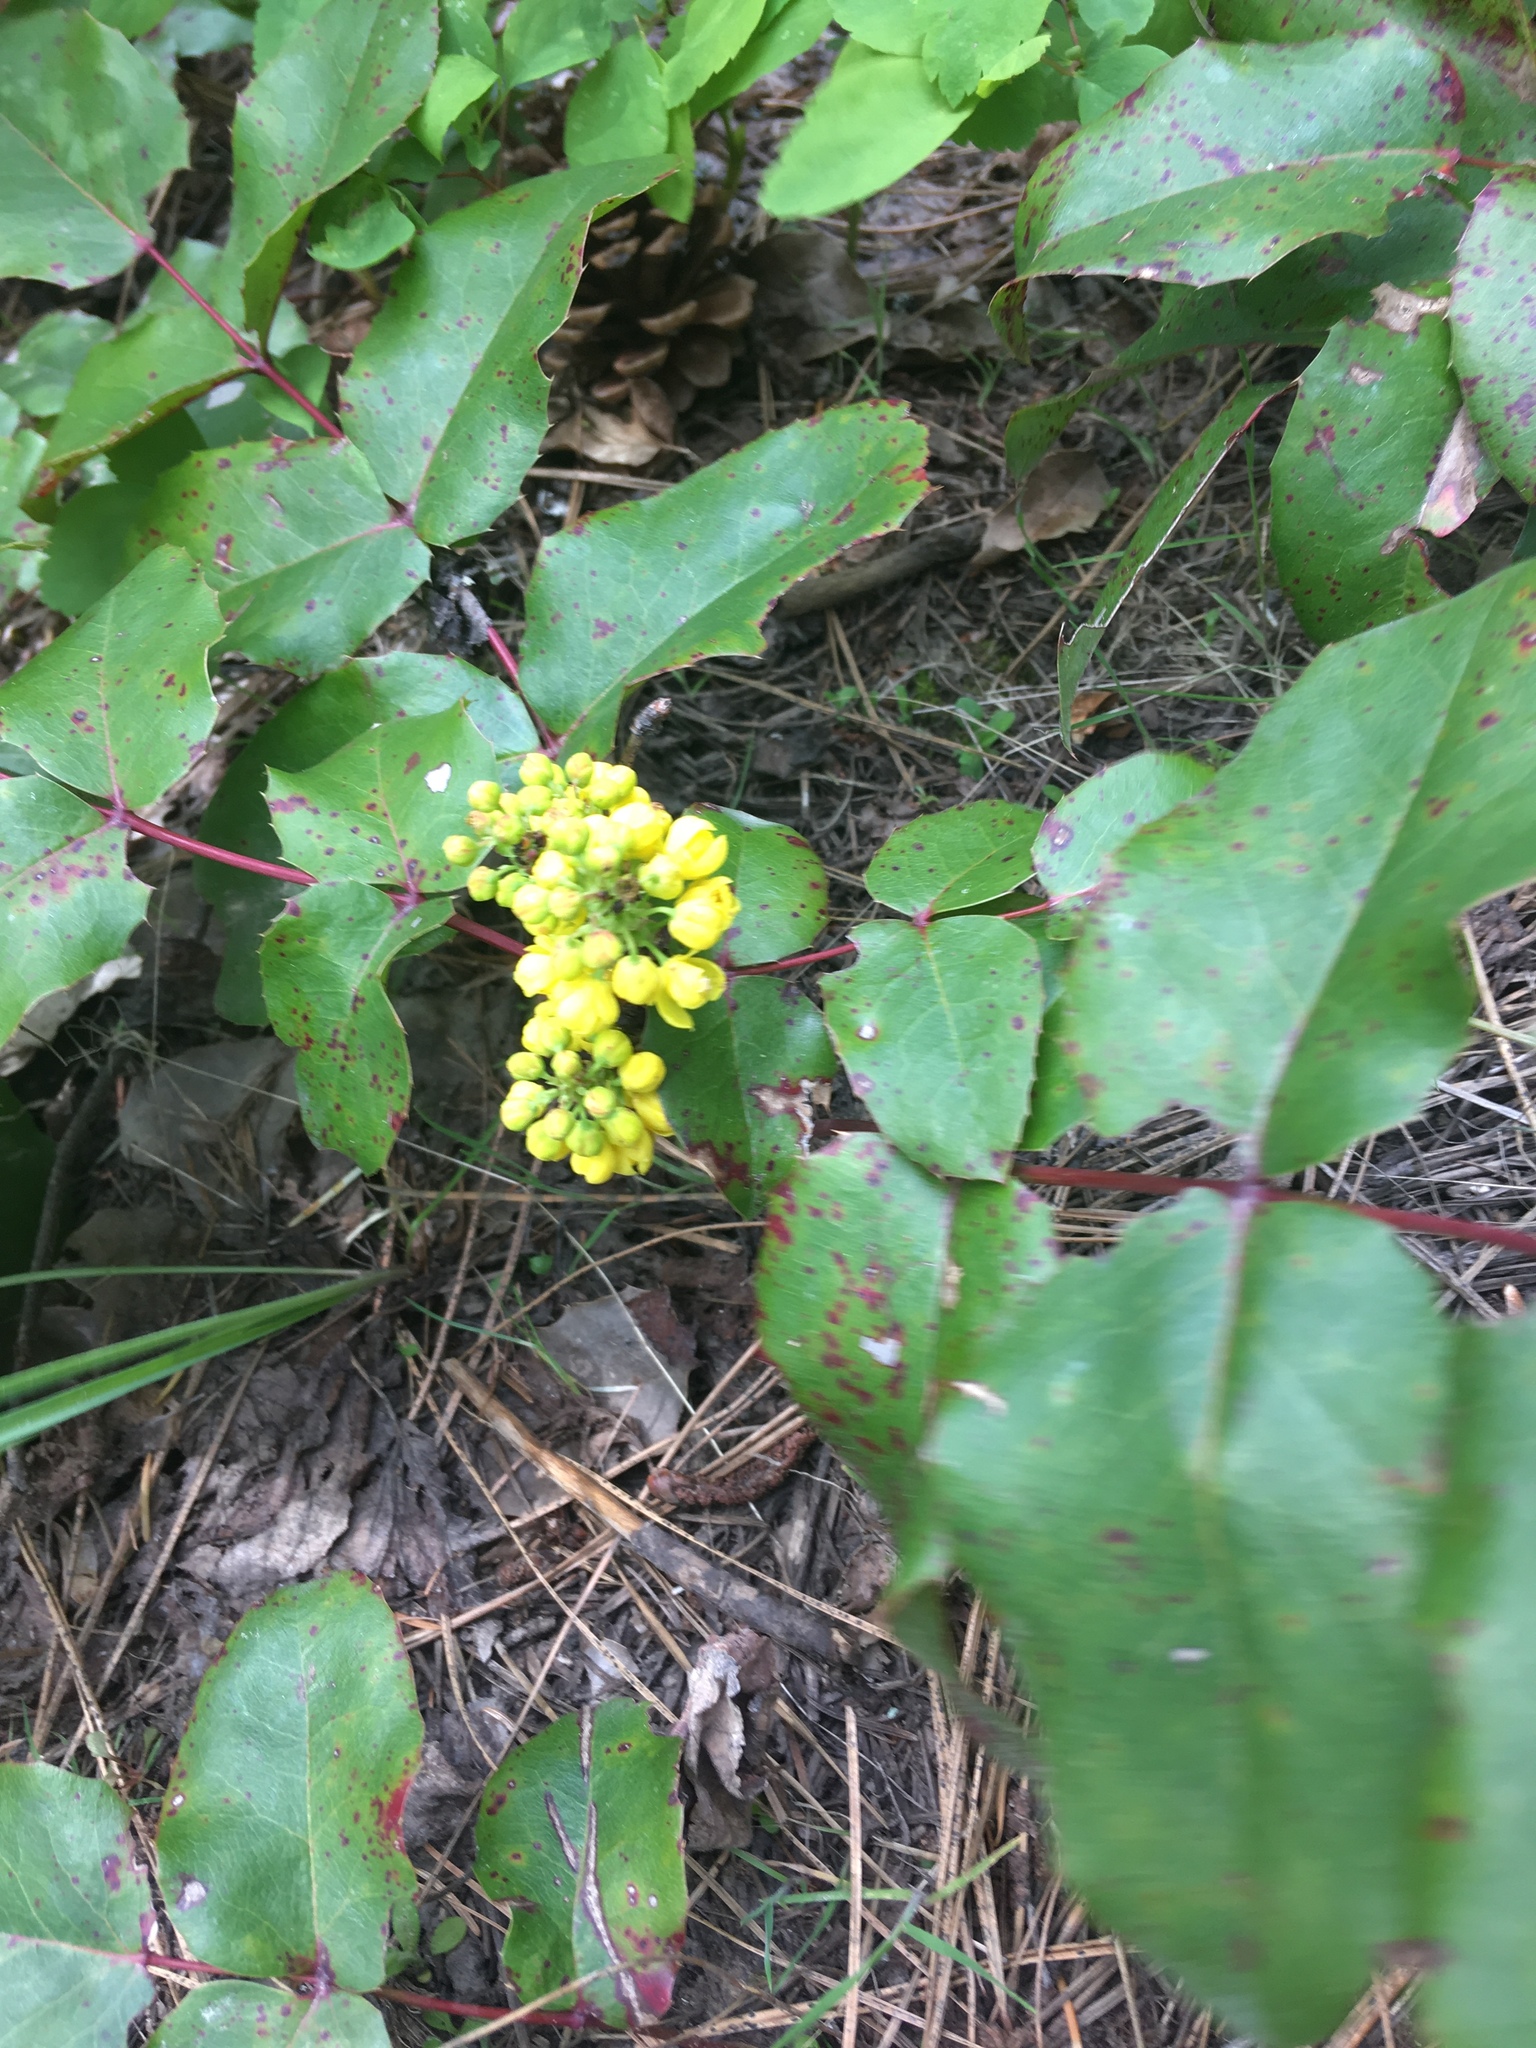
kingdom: Plantae
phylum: Tracheophyta
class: Magnoliopsida
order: Ranunculales
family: Berberidaceae
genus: Mahonia
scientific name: Mahonia repens
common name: Creeping oregon-grape
